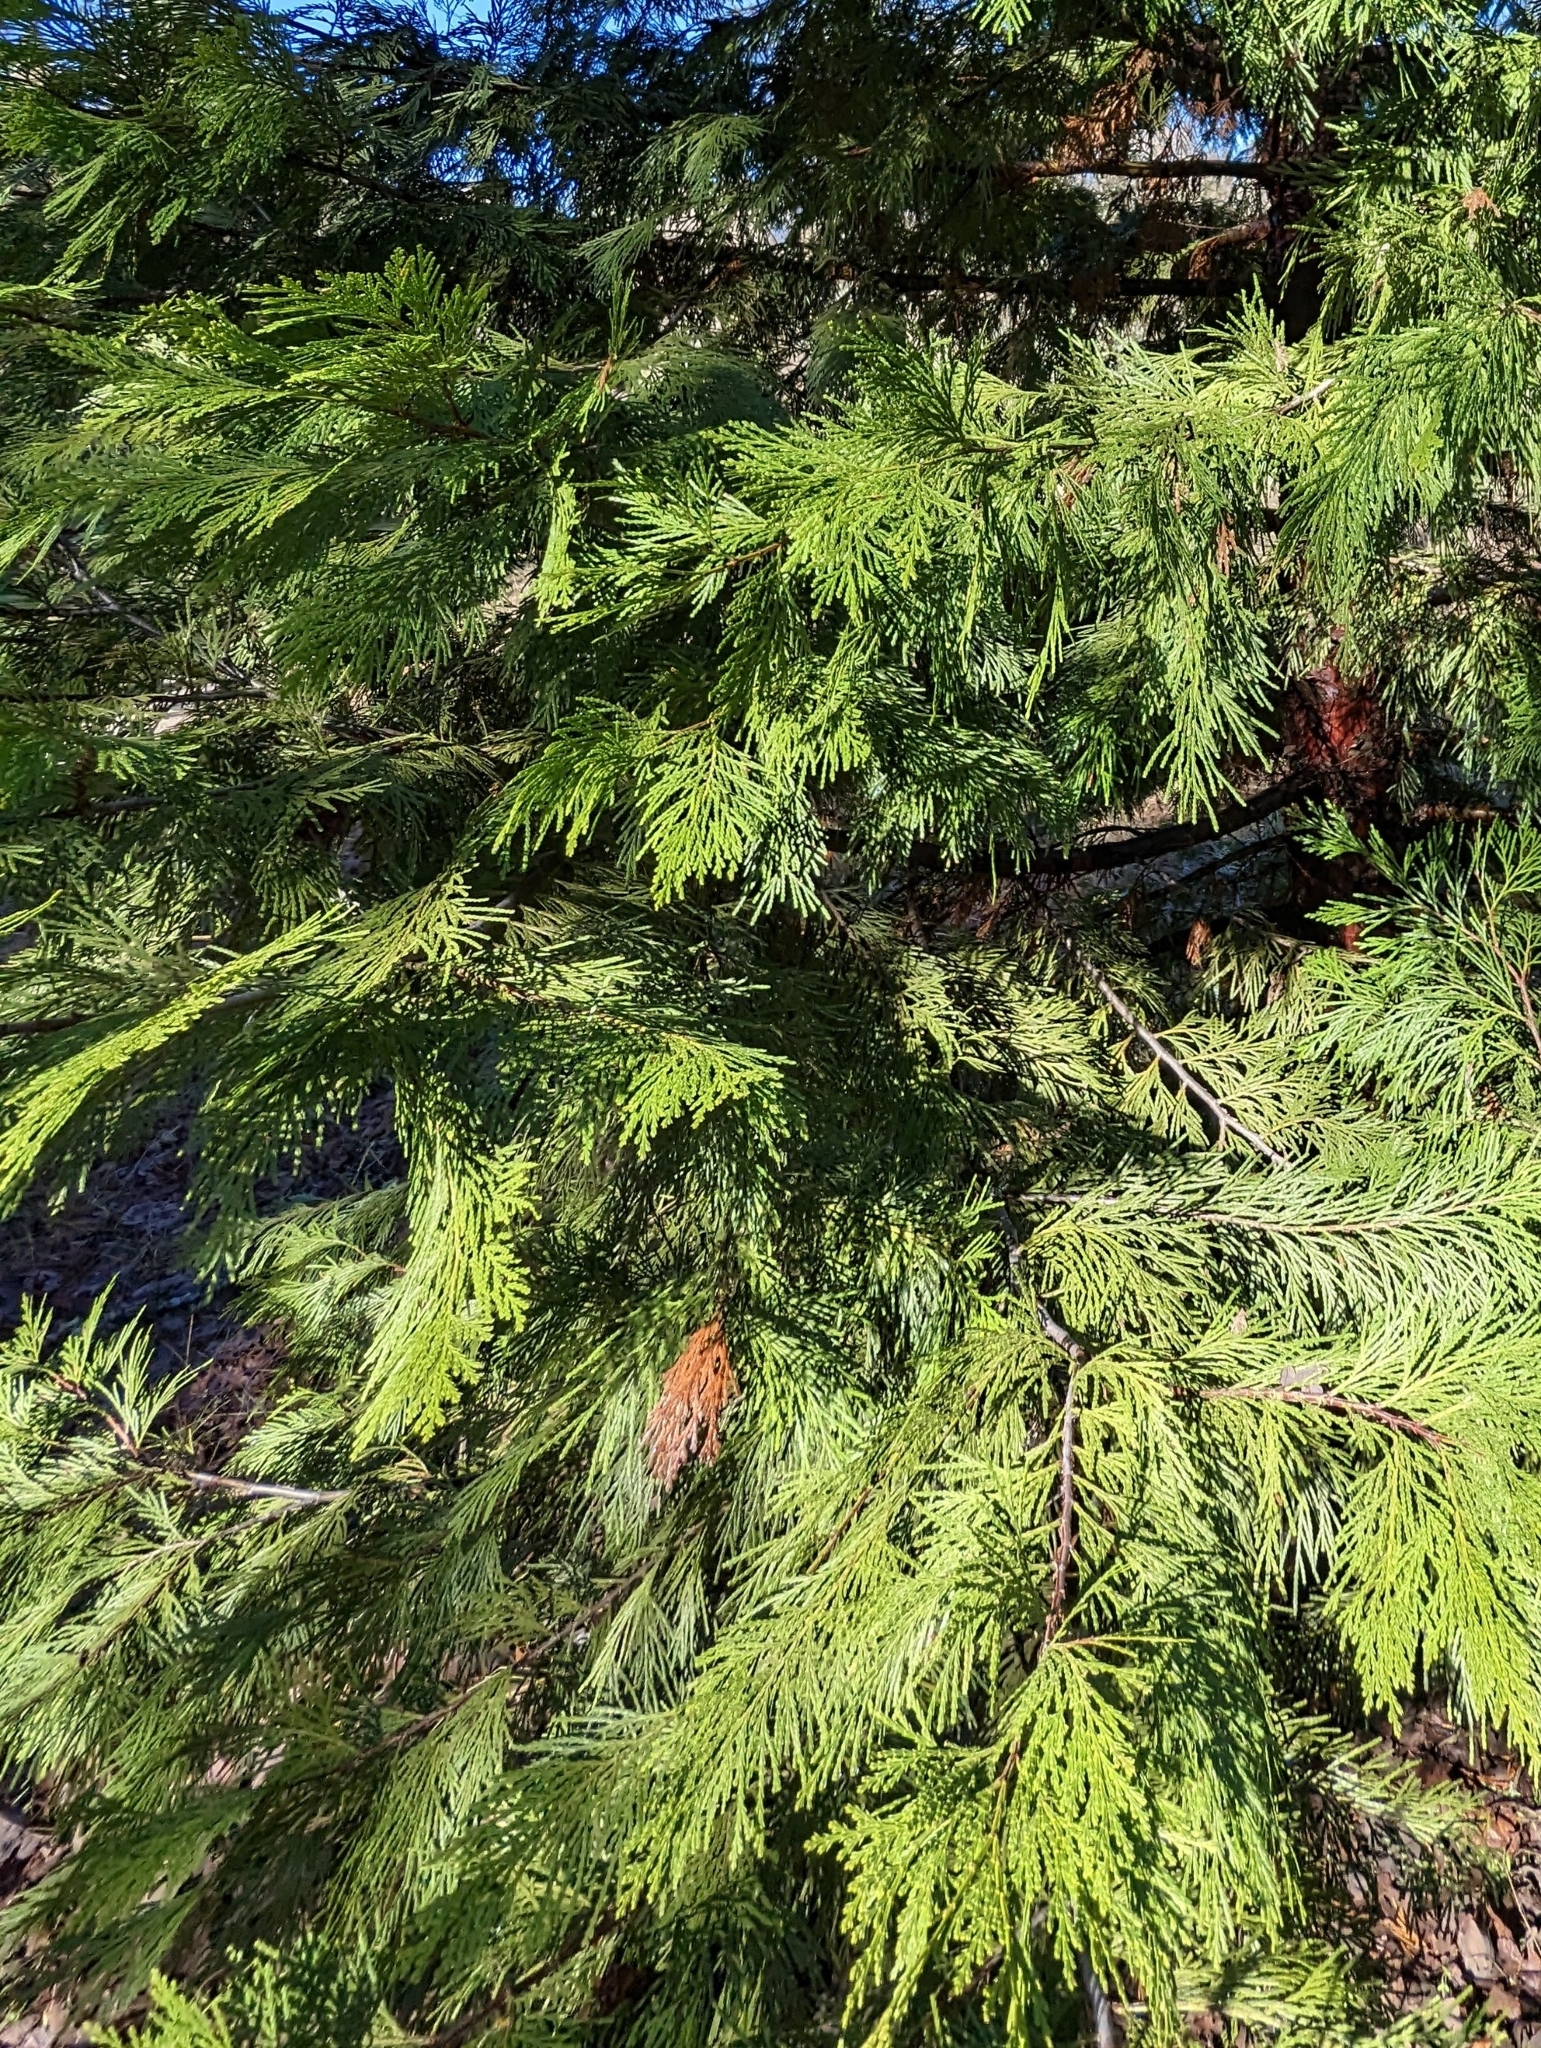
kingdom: Plantae
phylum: Tracheophyta
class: Pinopsida
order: Pinales
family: Cupressaceae
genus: Calocedrus
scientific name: Calocedrus decurrens
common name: Californian incense-cedar
